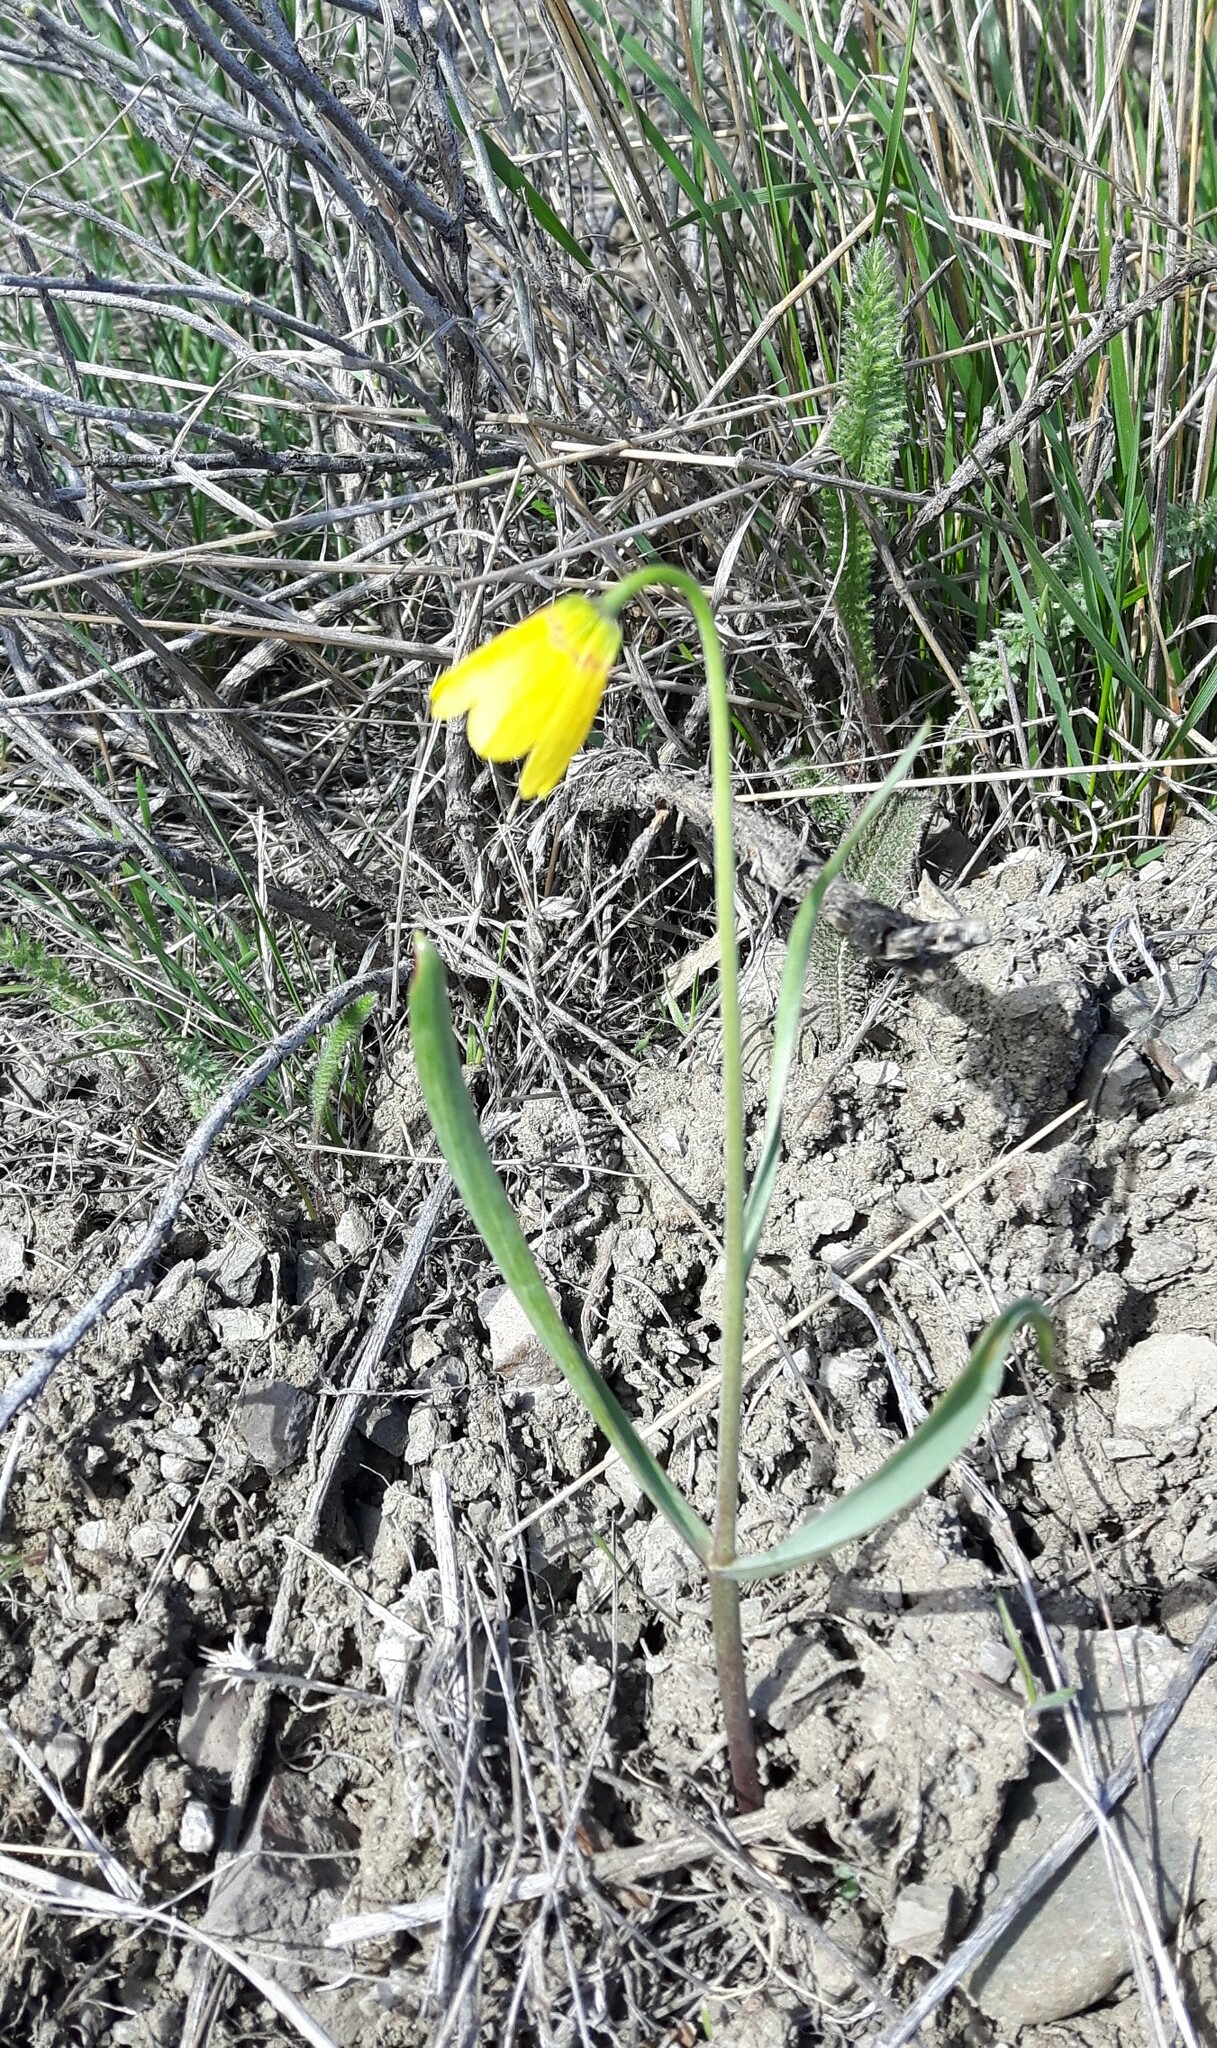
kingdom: Plantae
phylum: Tracheophyta
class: Liliopsida
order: Liliales
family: Liliaceae
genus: Fritillaria
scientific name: Fritillaria pudica
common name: Yellow fritillary
